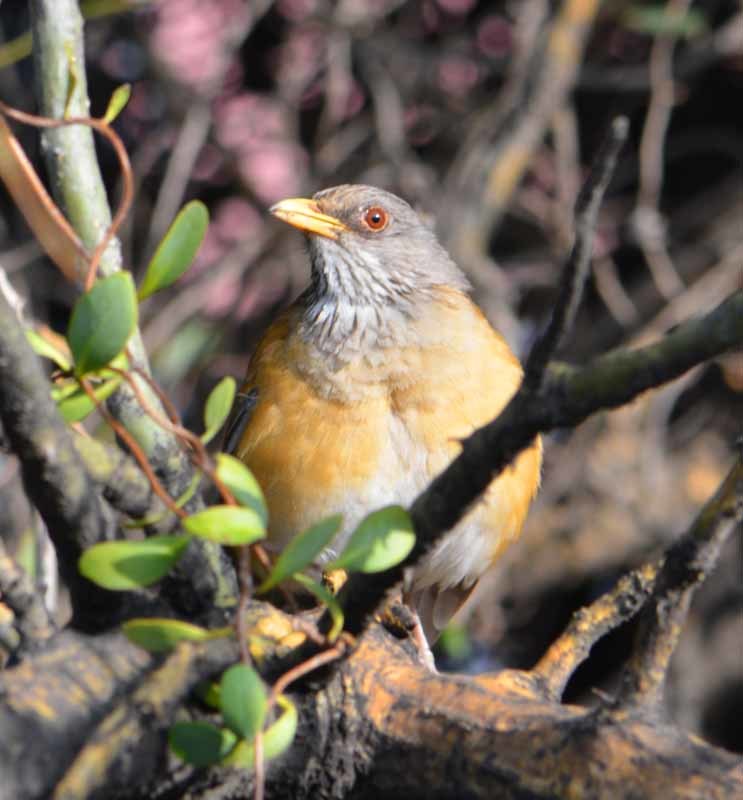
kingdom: Animalia
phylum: Chordata
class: Aves
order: Passeriformes
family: Turdidae
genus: Turdus
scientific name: Turdus rufopalliatus
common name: Rufous-backed robin
